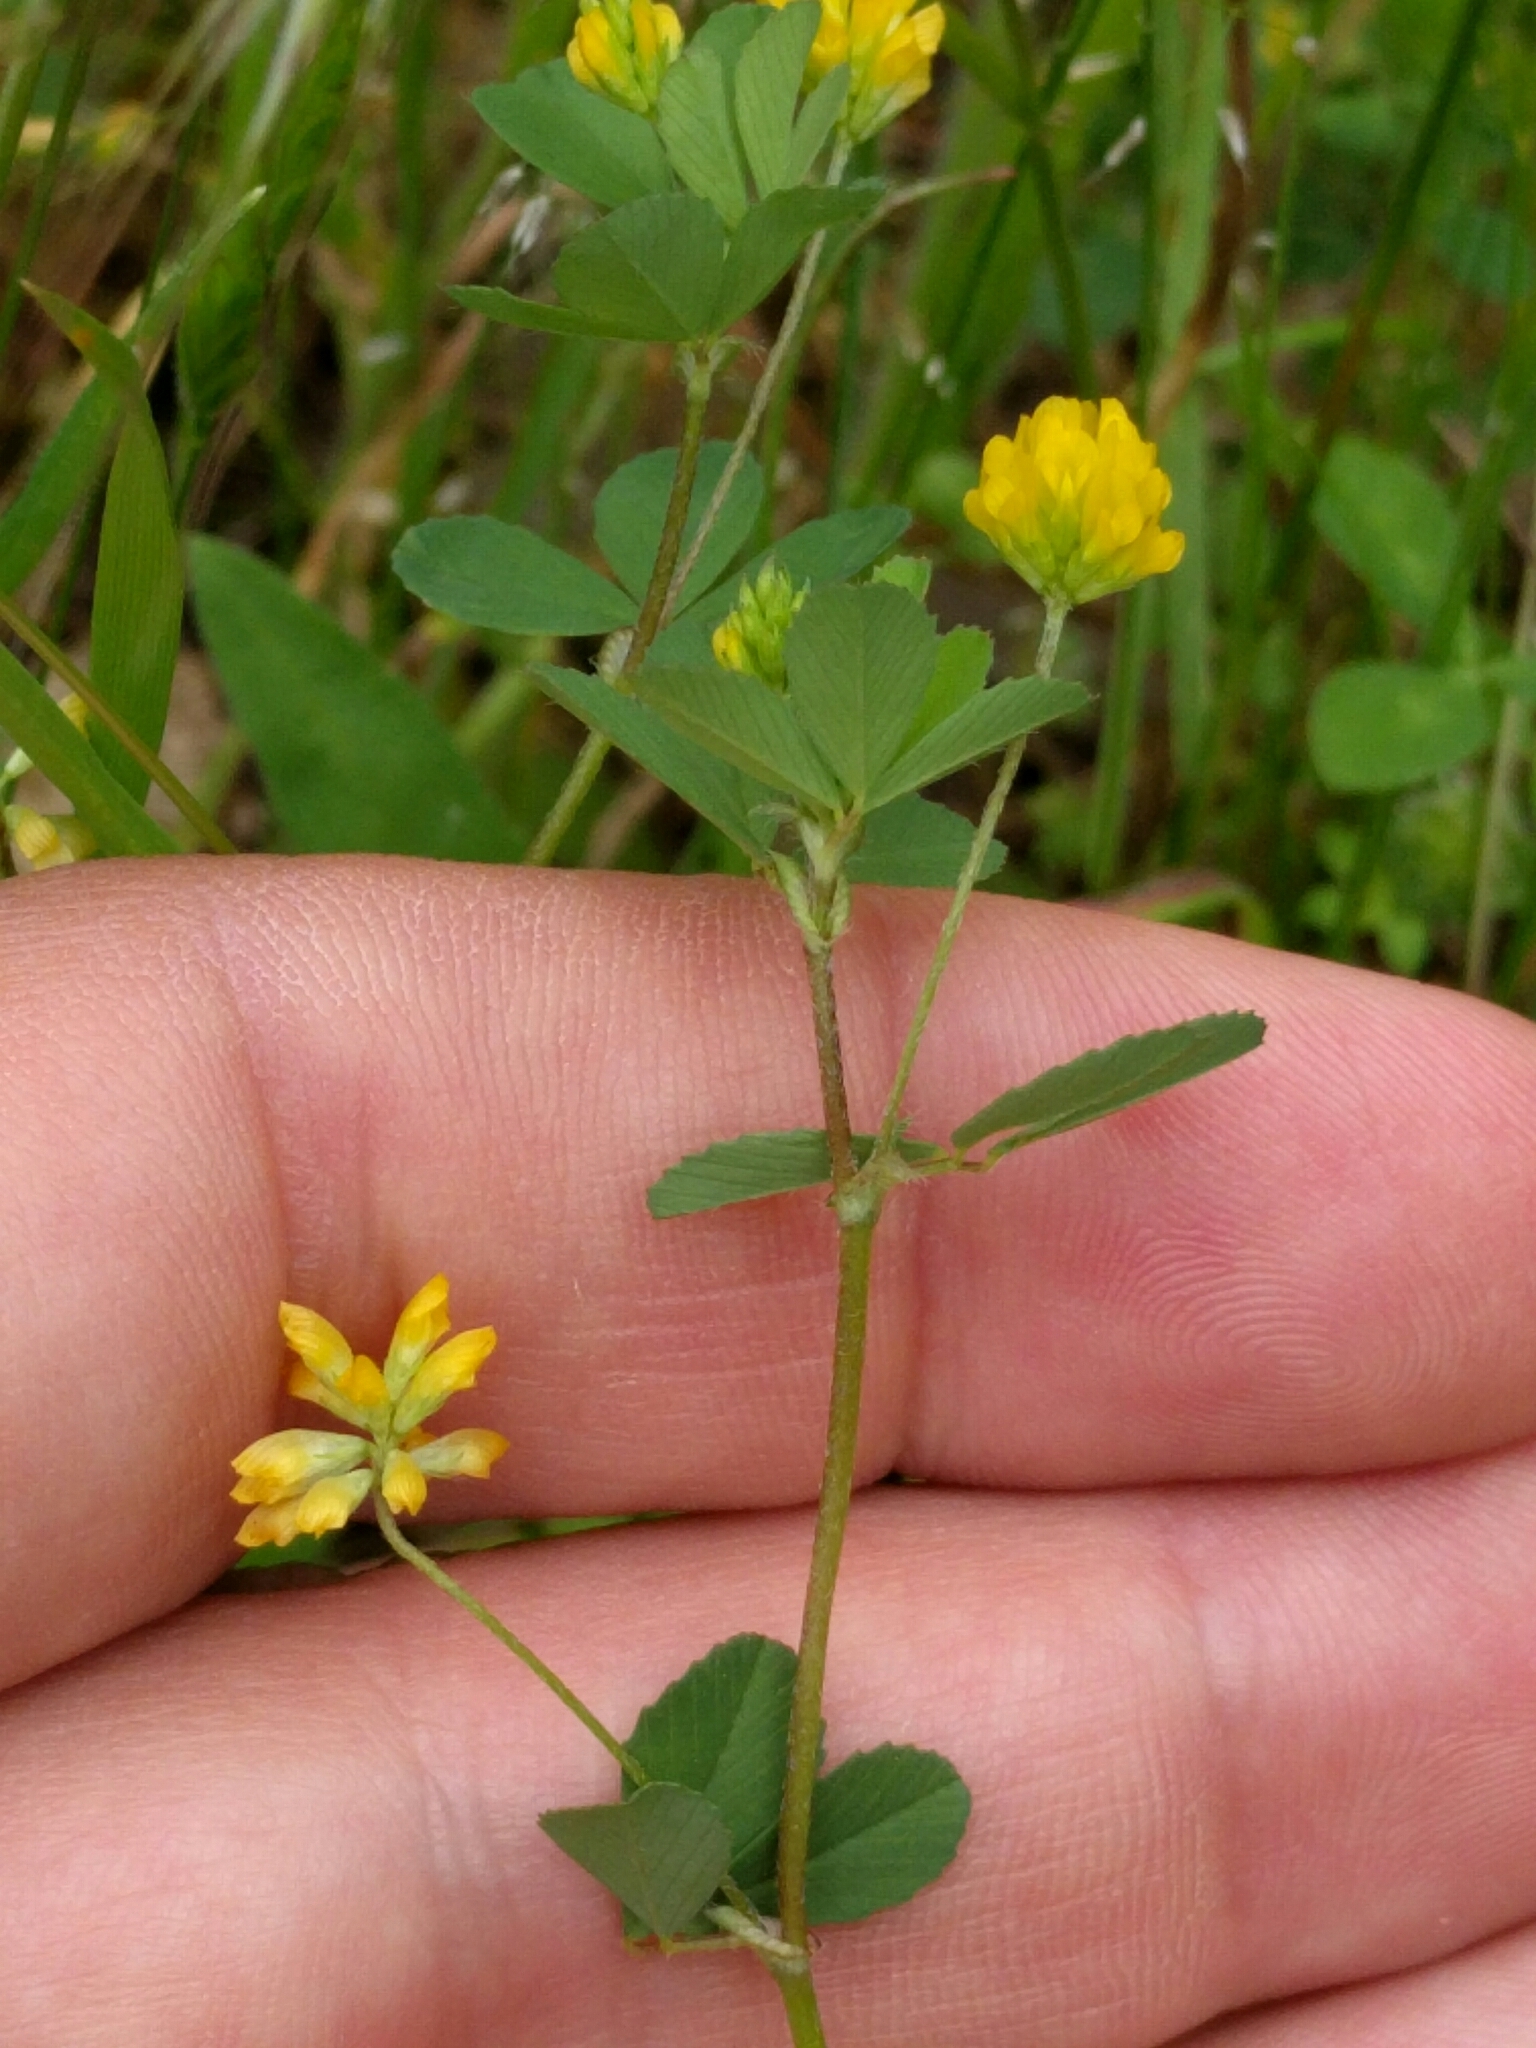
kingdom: Plantae
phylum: Tracheophyta
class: Magnoliopsida
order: Fabales
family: Fabaceae
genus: Trifolium
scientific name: Trifolium dubium
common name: Suckling clover
